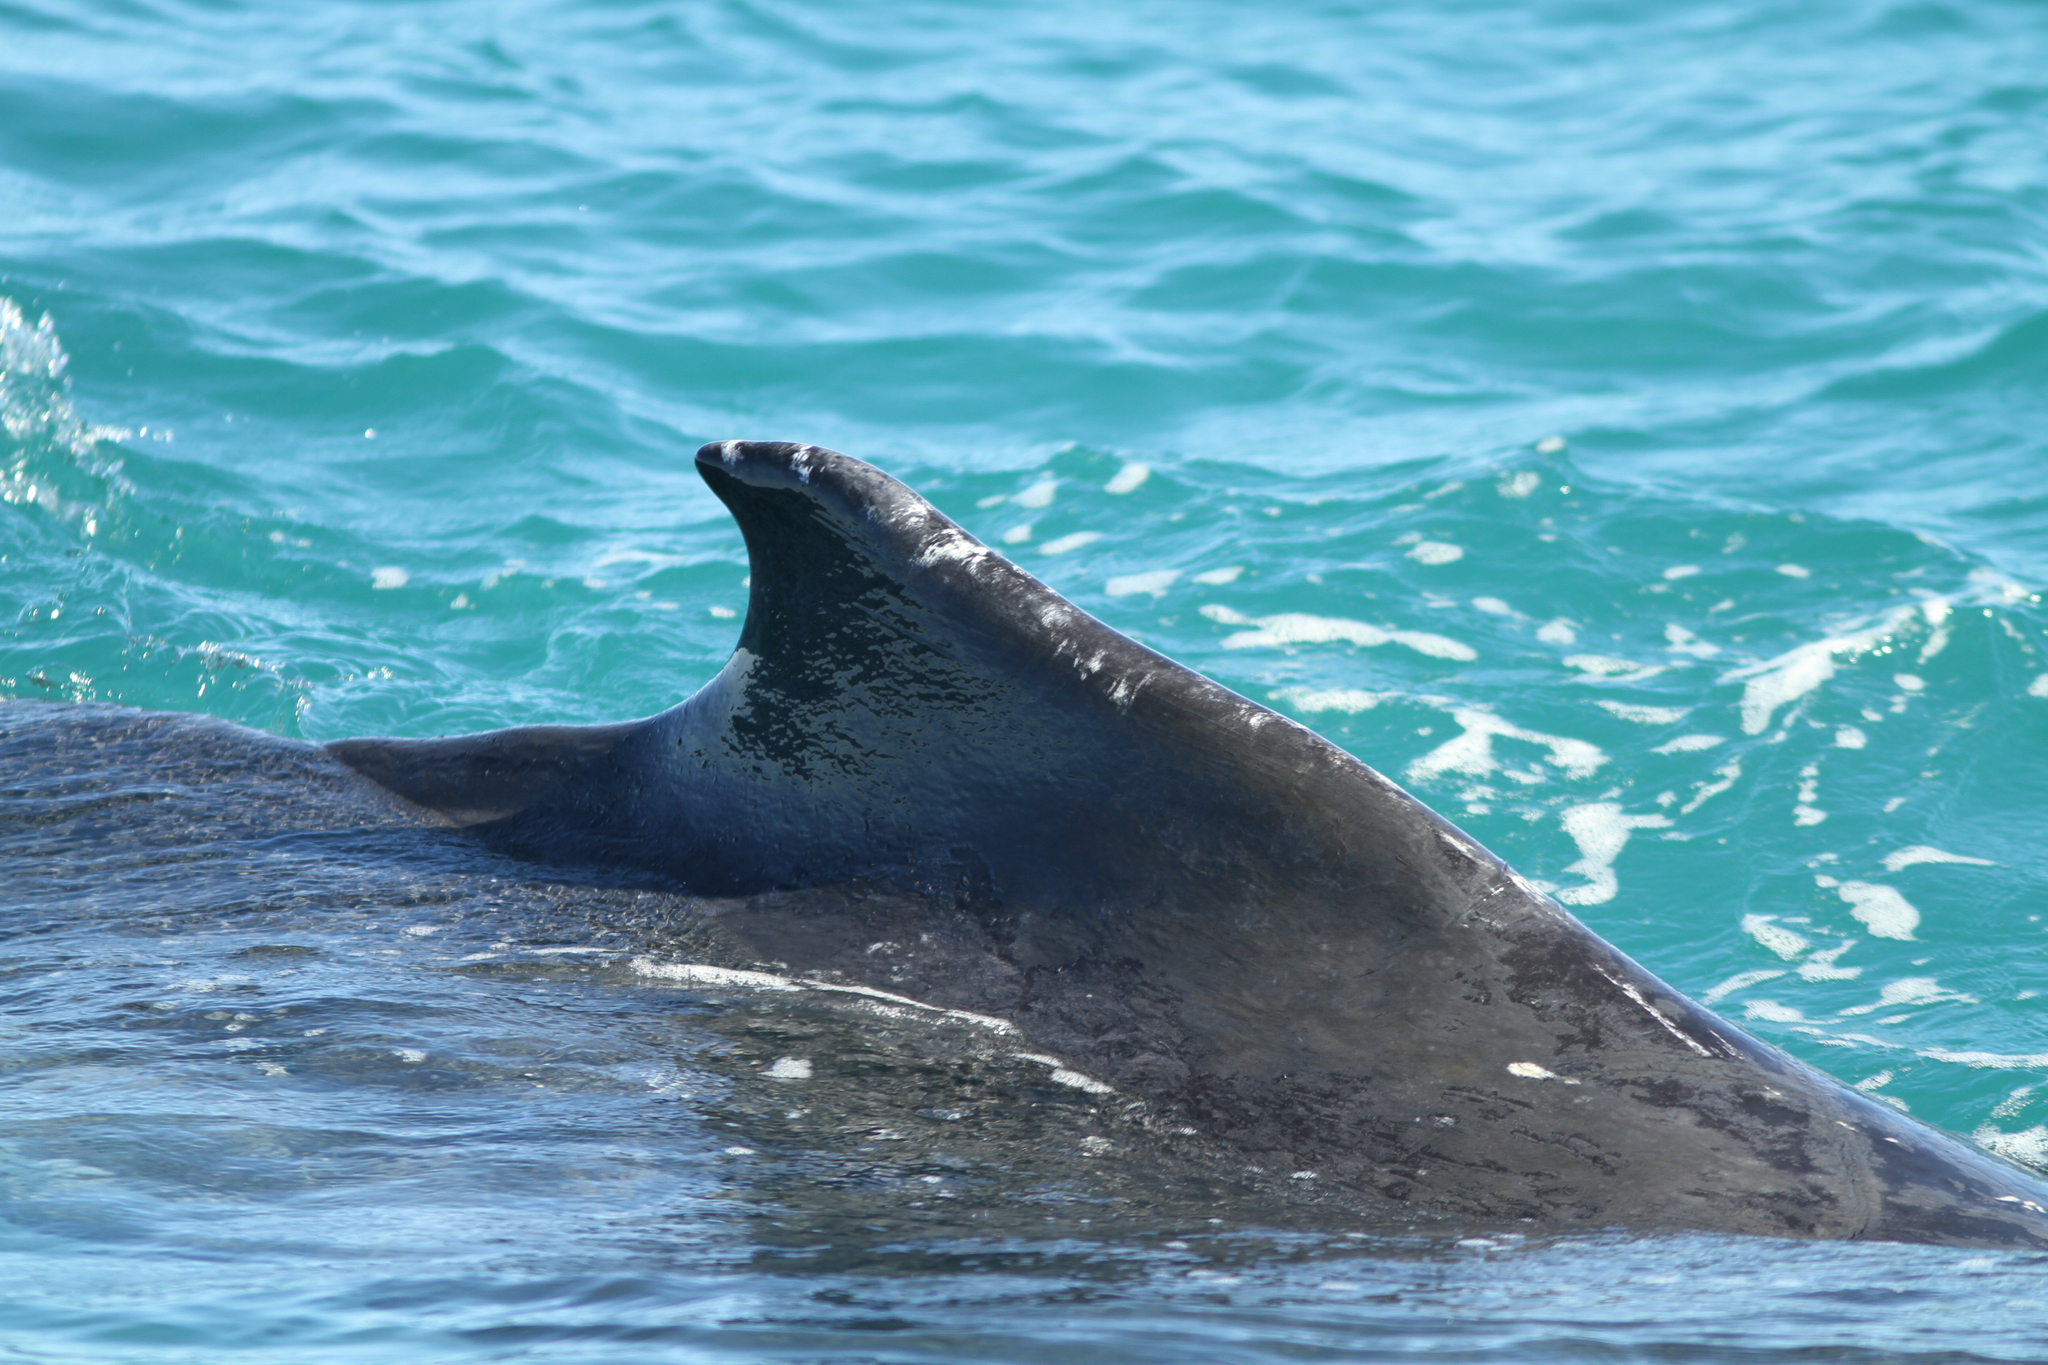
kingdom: Animalia
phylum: Chordata
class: Mammalia
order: Cetacea
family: Balaenopteridae
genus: Megaptera
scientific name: Megaptera novaeangliae
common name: Humpback whale
